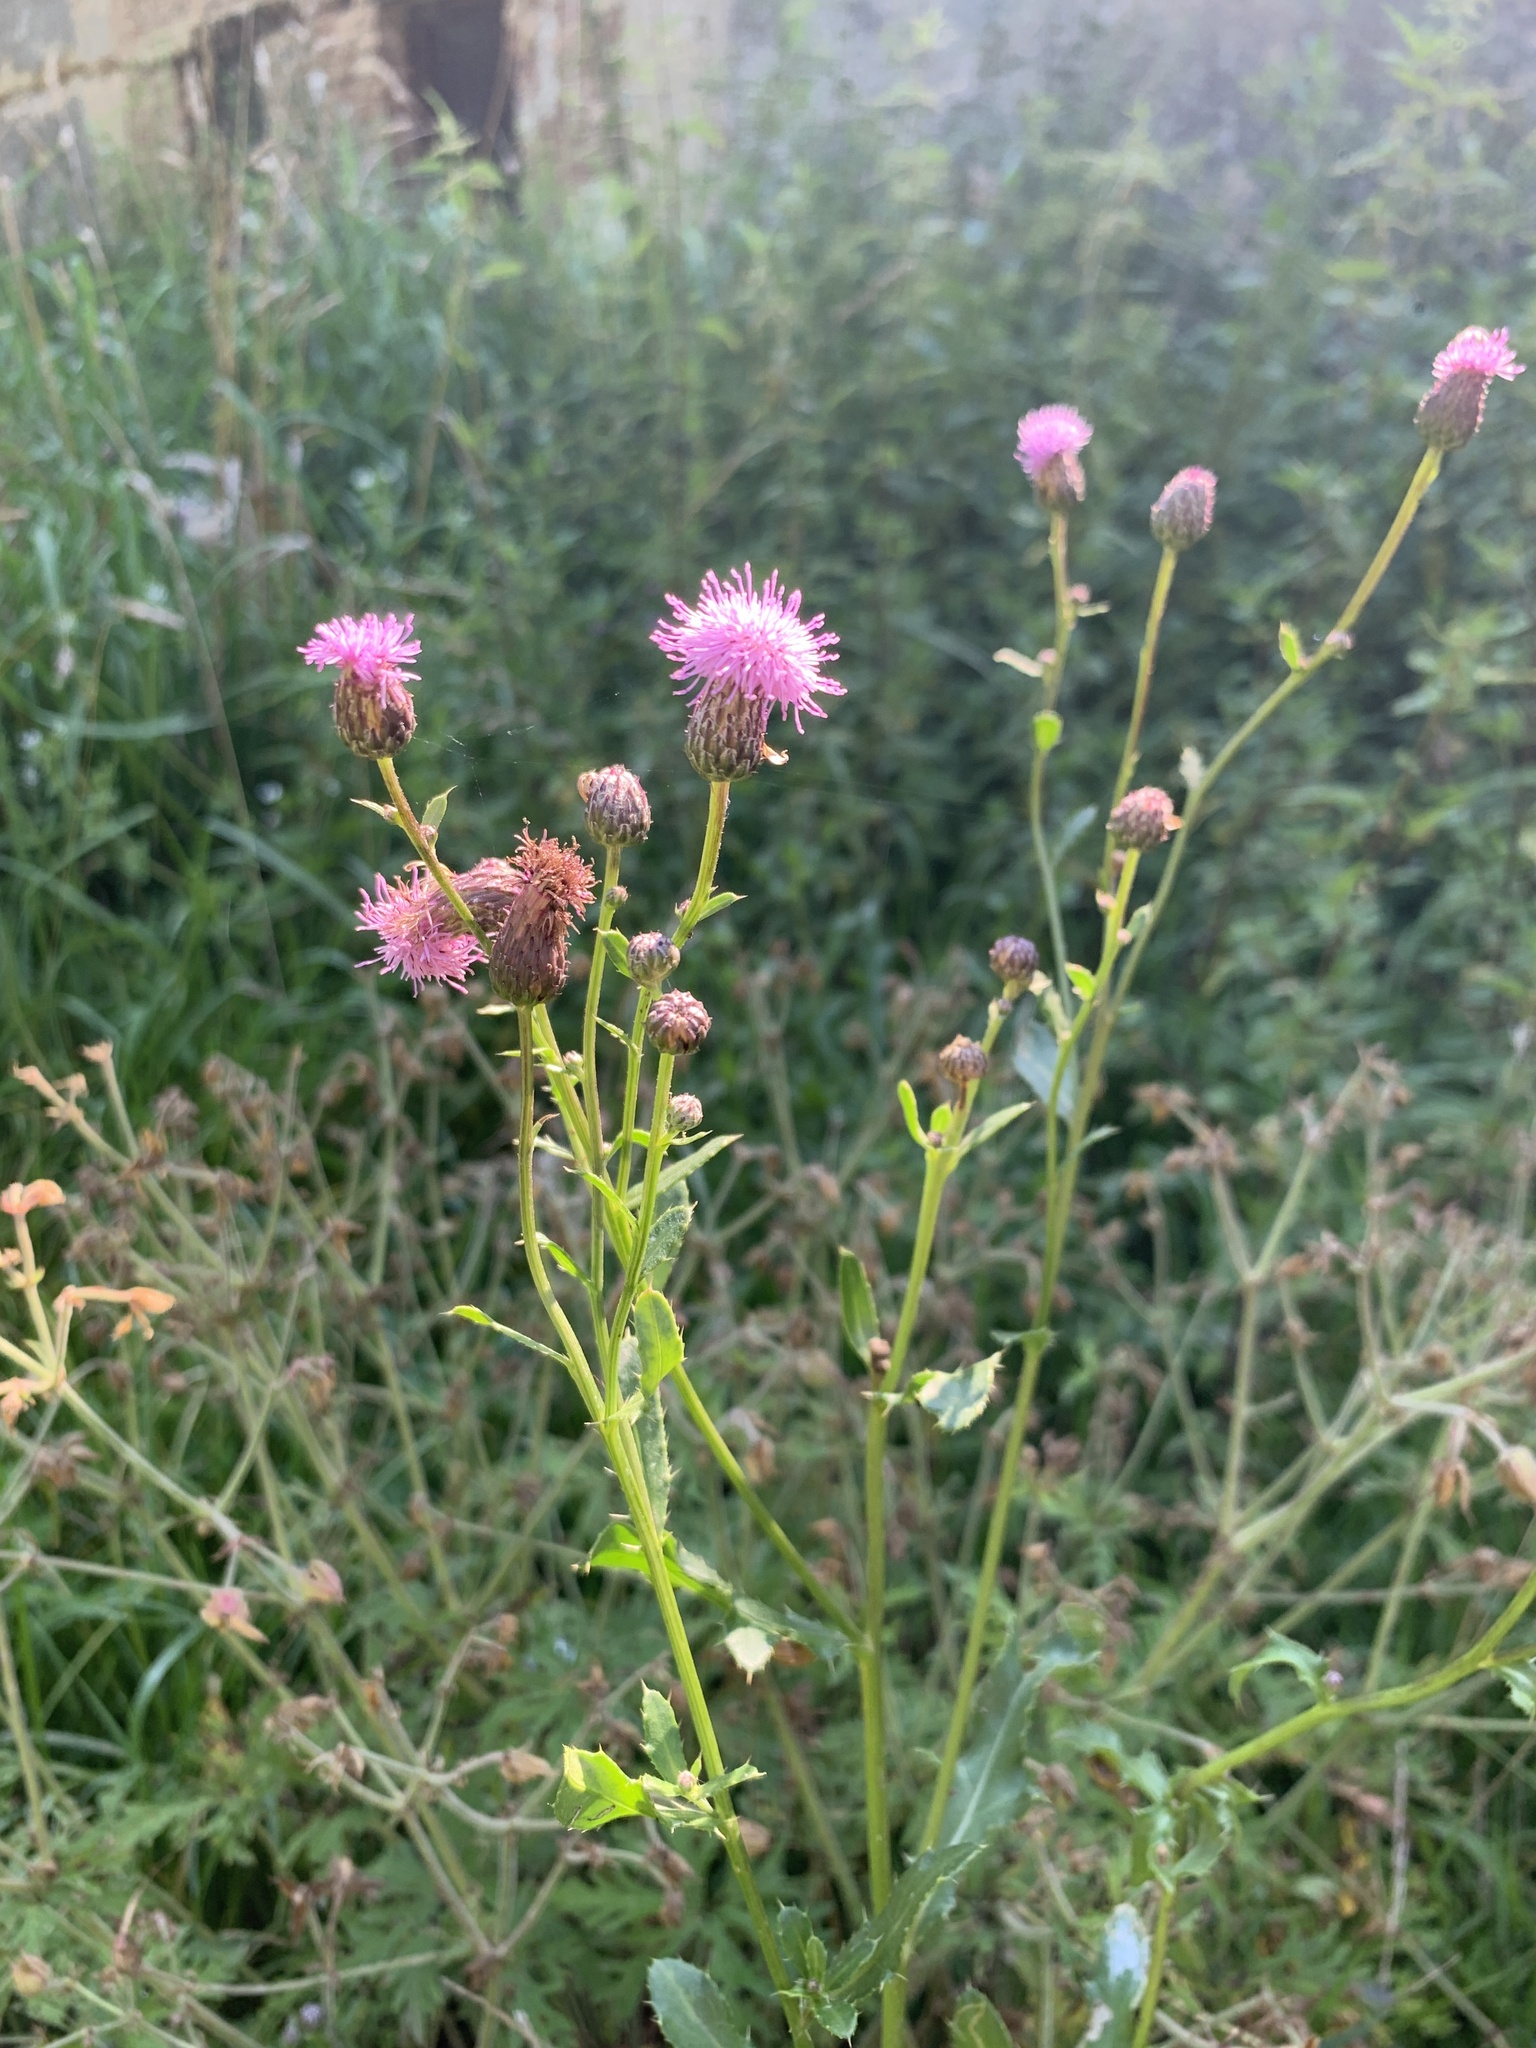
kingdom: Plantae
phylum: Tracheophyta
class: Magnoliopsida
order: Asterales
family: Asteraceae
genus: Cirsium
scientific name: Cirsium arvense
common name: Creeping thistle
